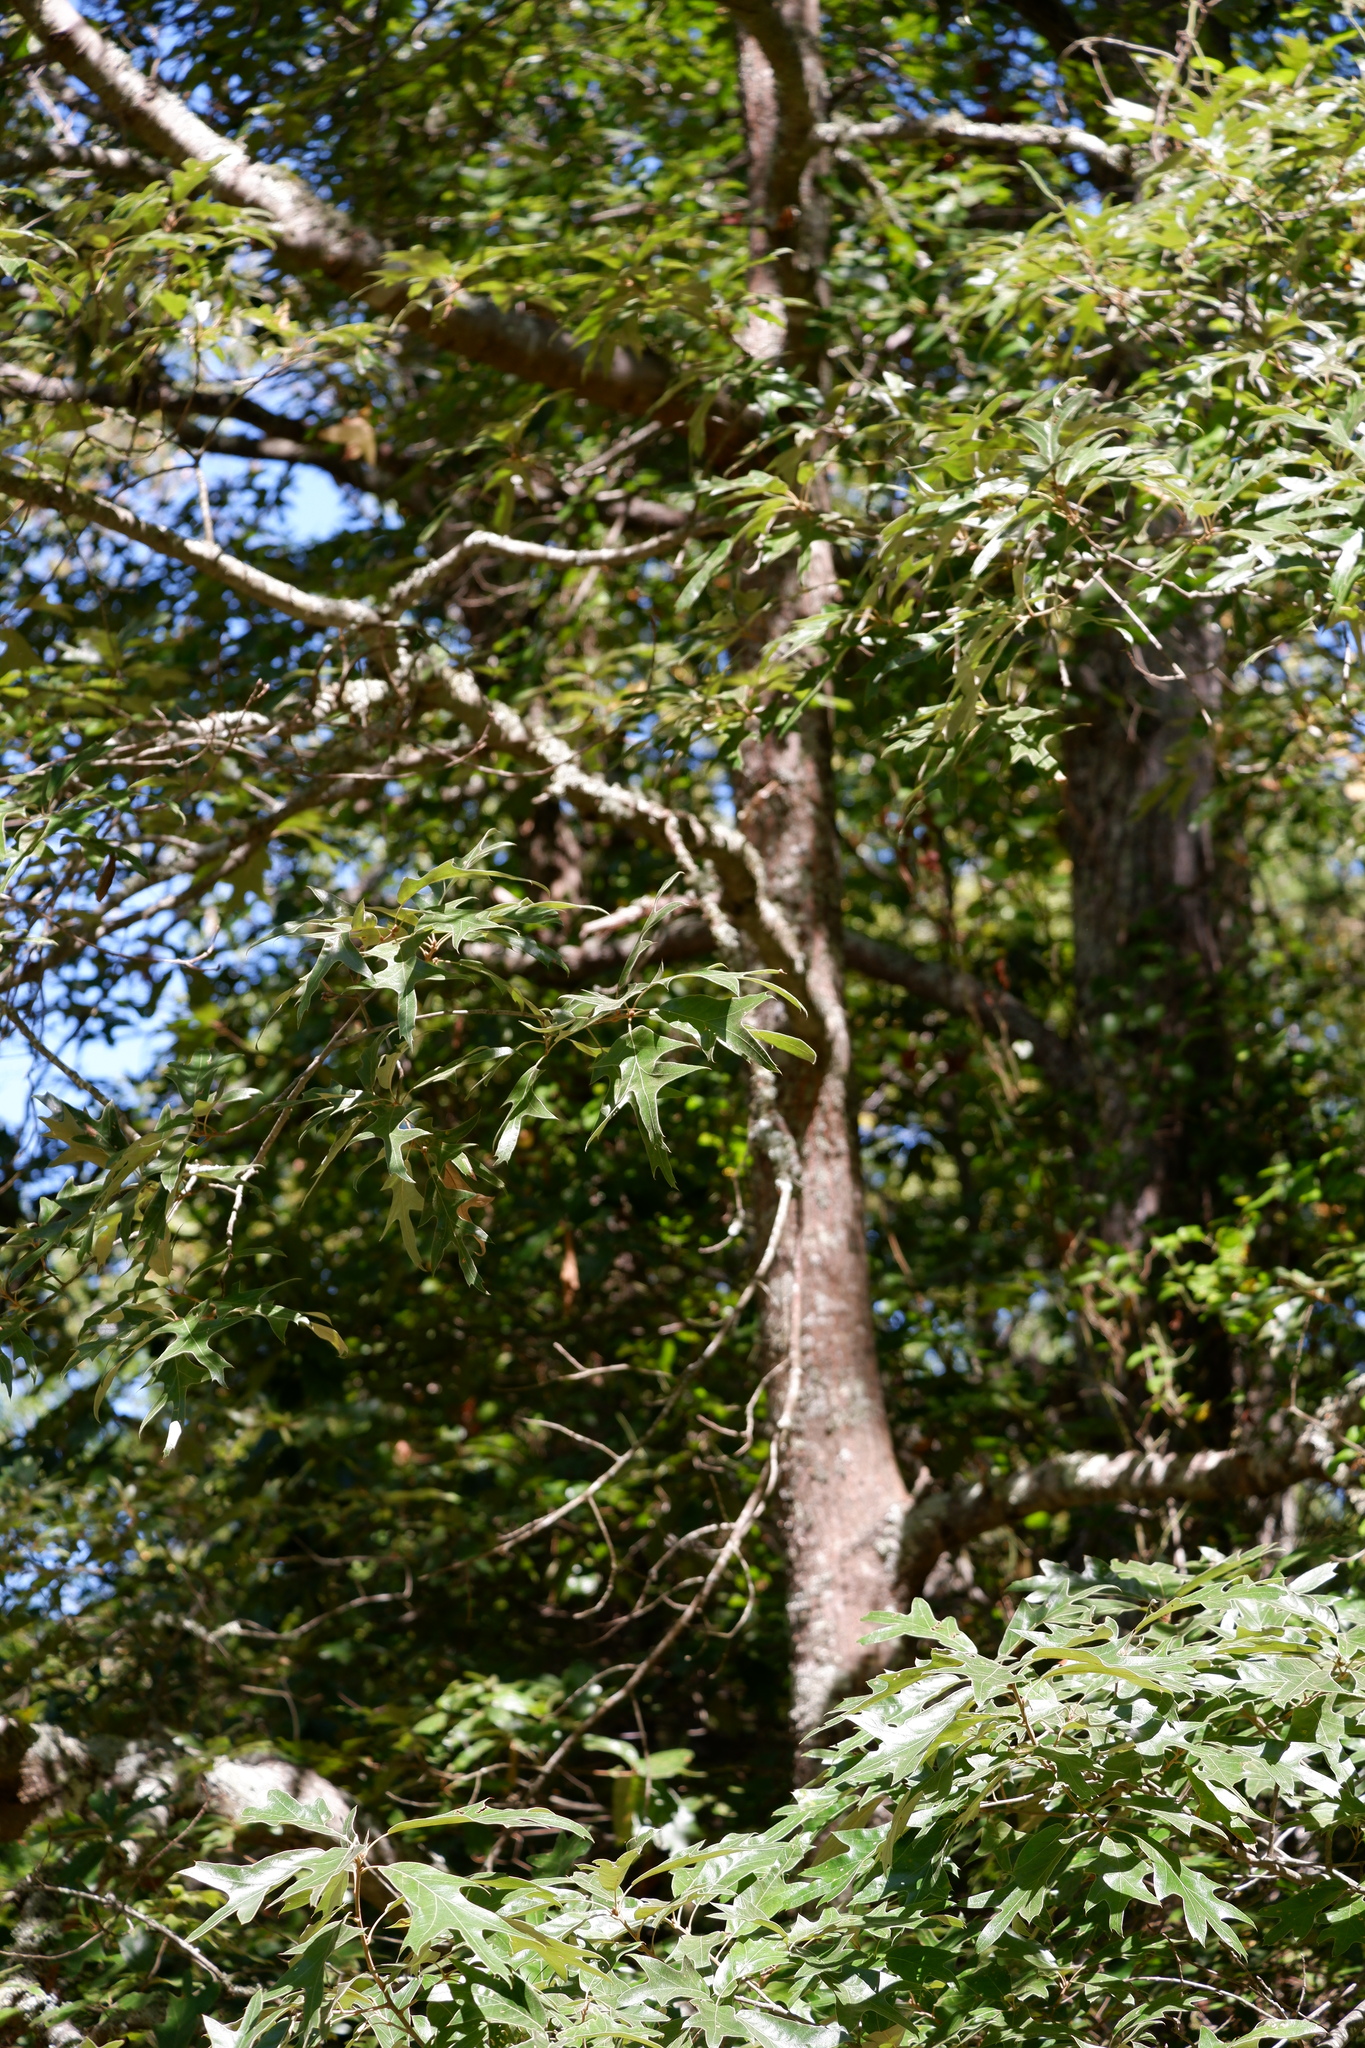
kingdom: Plantae
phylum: Tracheophyta
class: Magnoliopsida
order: Fagales
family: Fagaceae
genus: Quercus
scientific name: Quercus falcata
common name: Southern red oak
